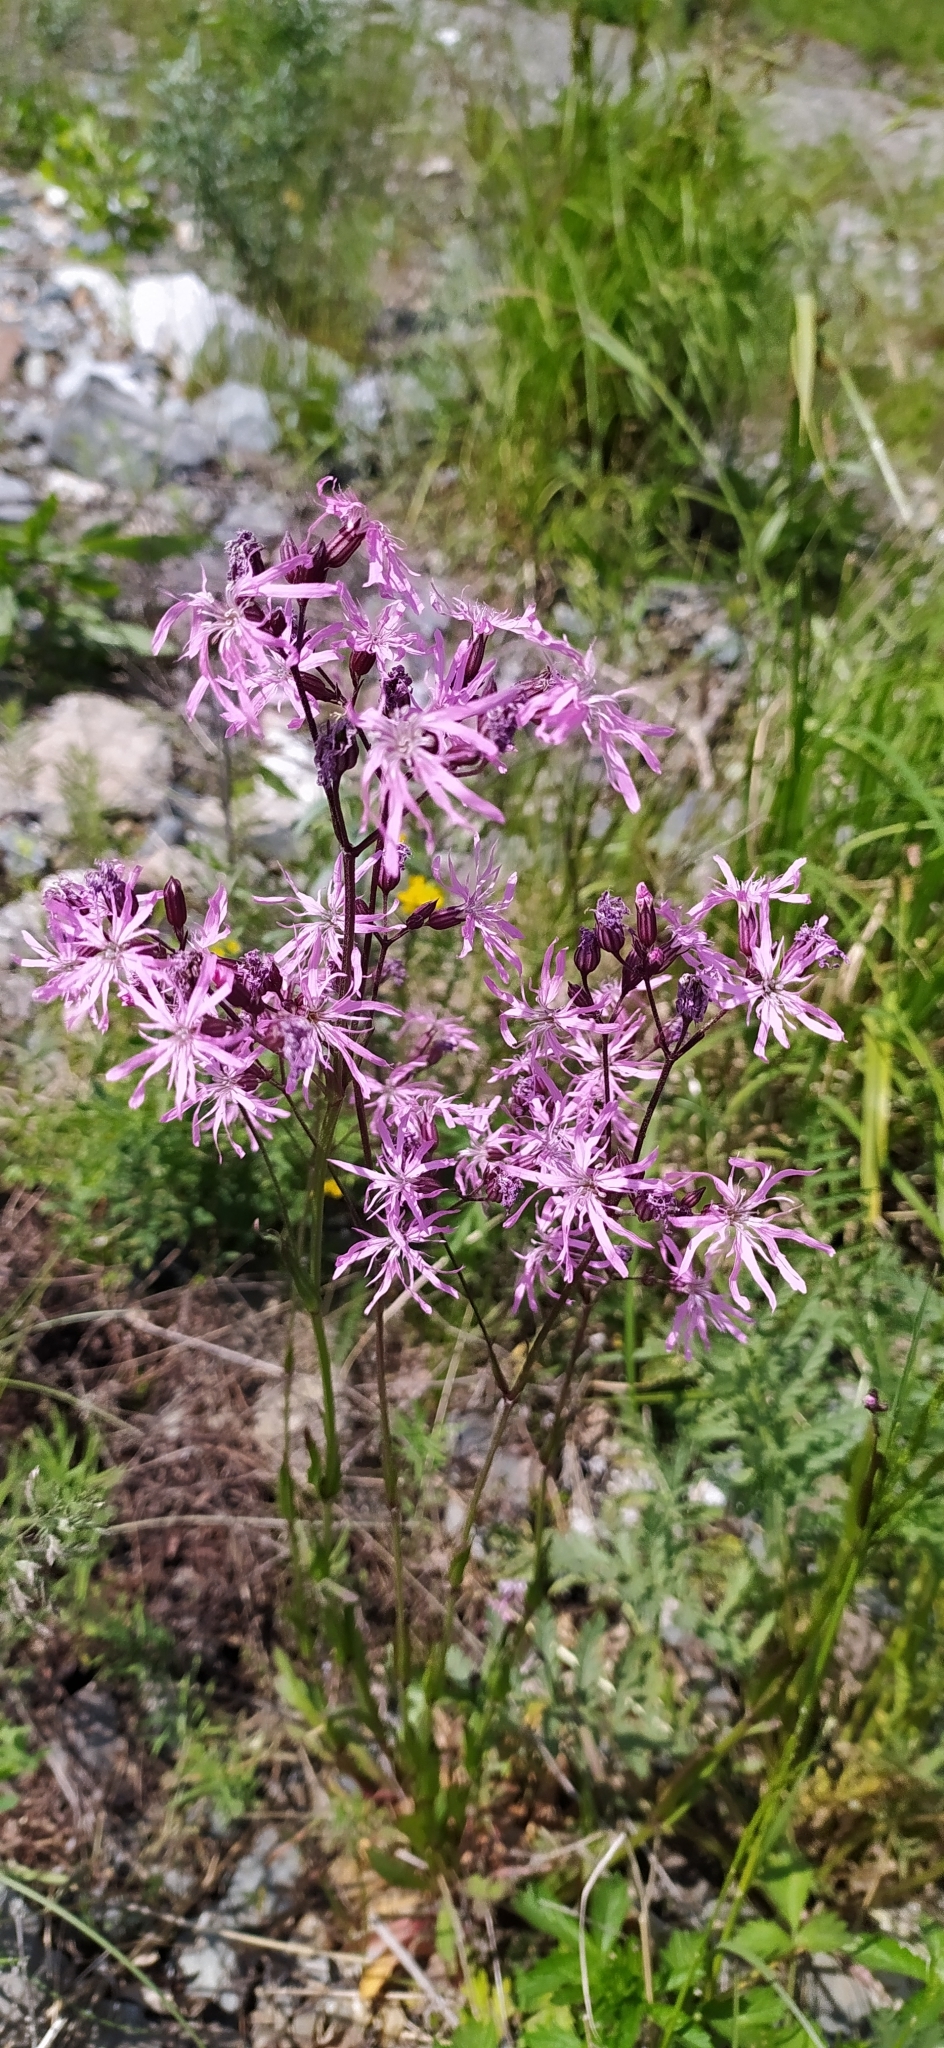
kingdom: Plantae
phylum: Tracheophyta
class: Magnoliopsida
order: Caryophyllales
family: Caryophyllaceae
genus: Silene
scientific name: Silene flos-cuculi
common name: Ragged-robin
